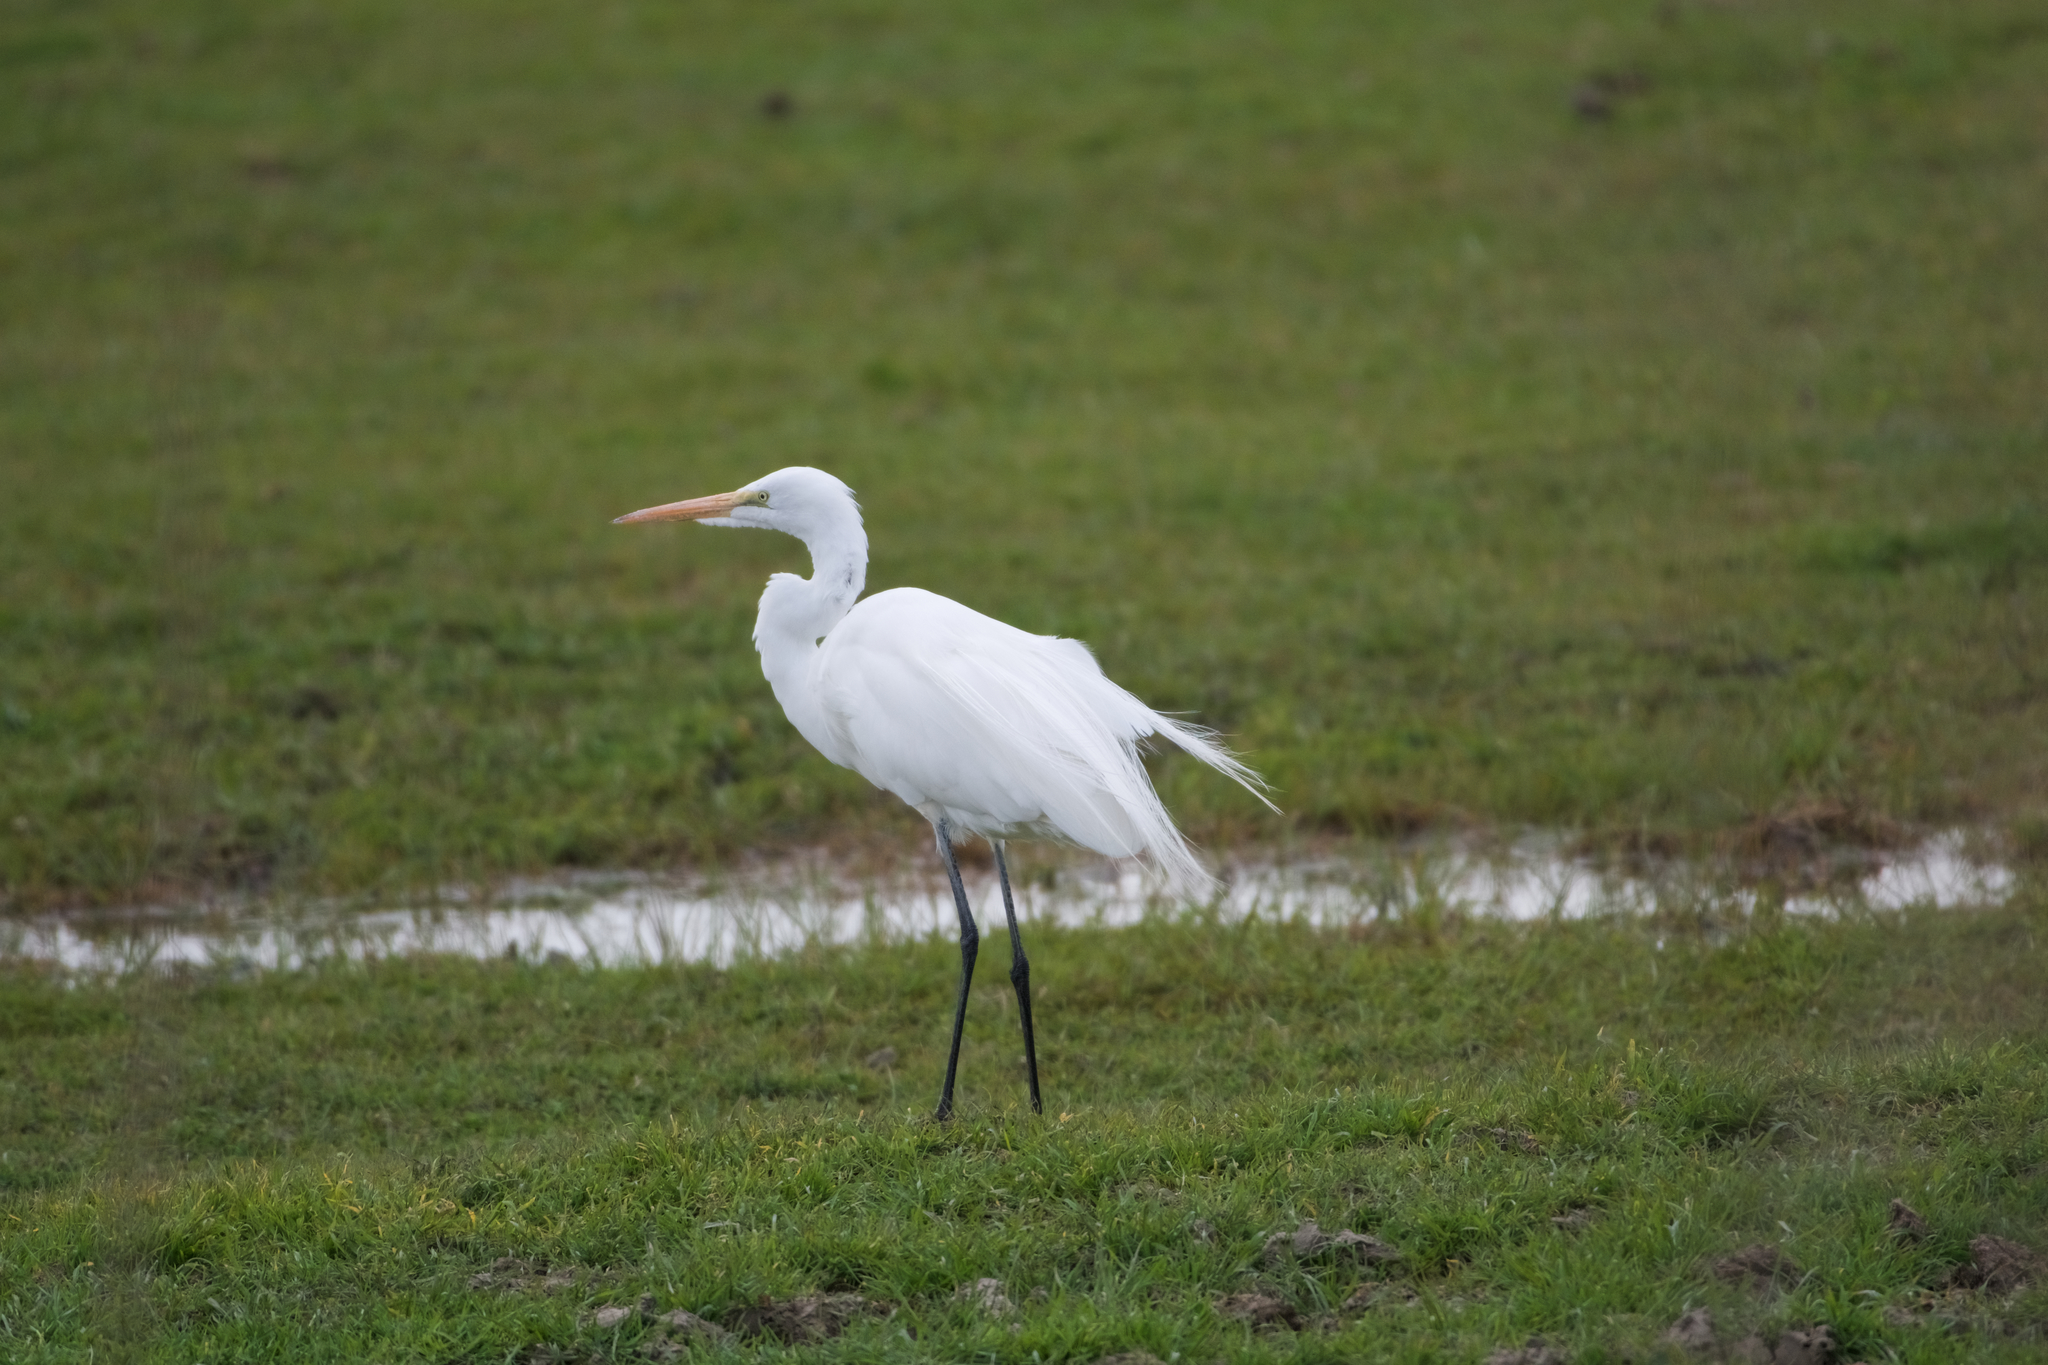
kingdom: Animalia
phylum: Chordata
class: Aves
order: Pelecaniformes
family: Ardeidae
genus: Ardea
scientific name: Ardea alba
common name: Great egret
